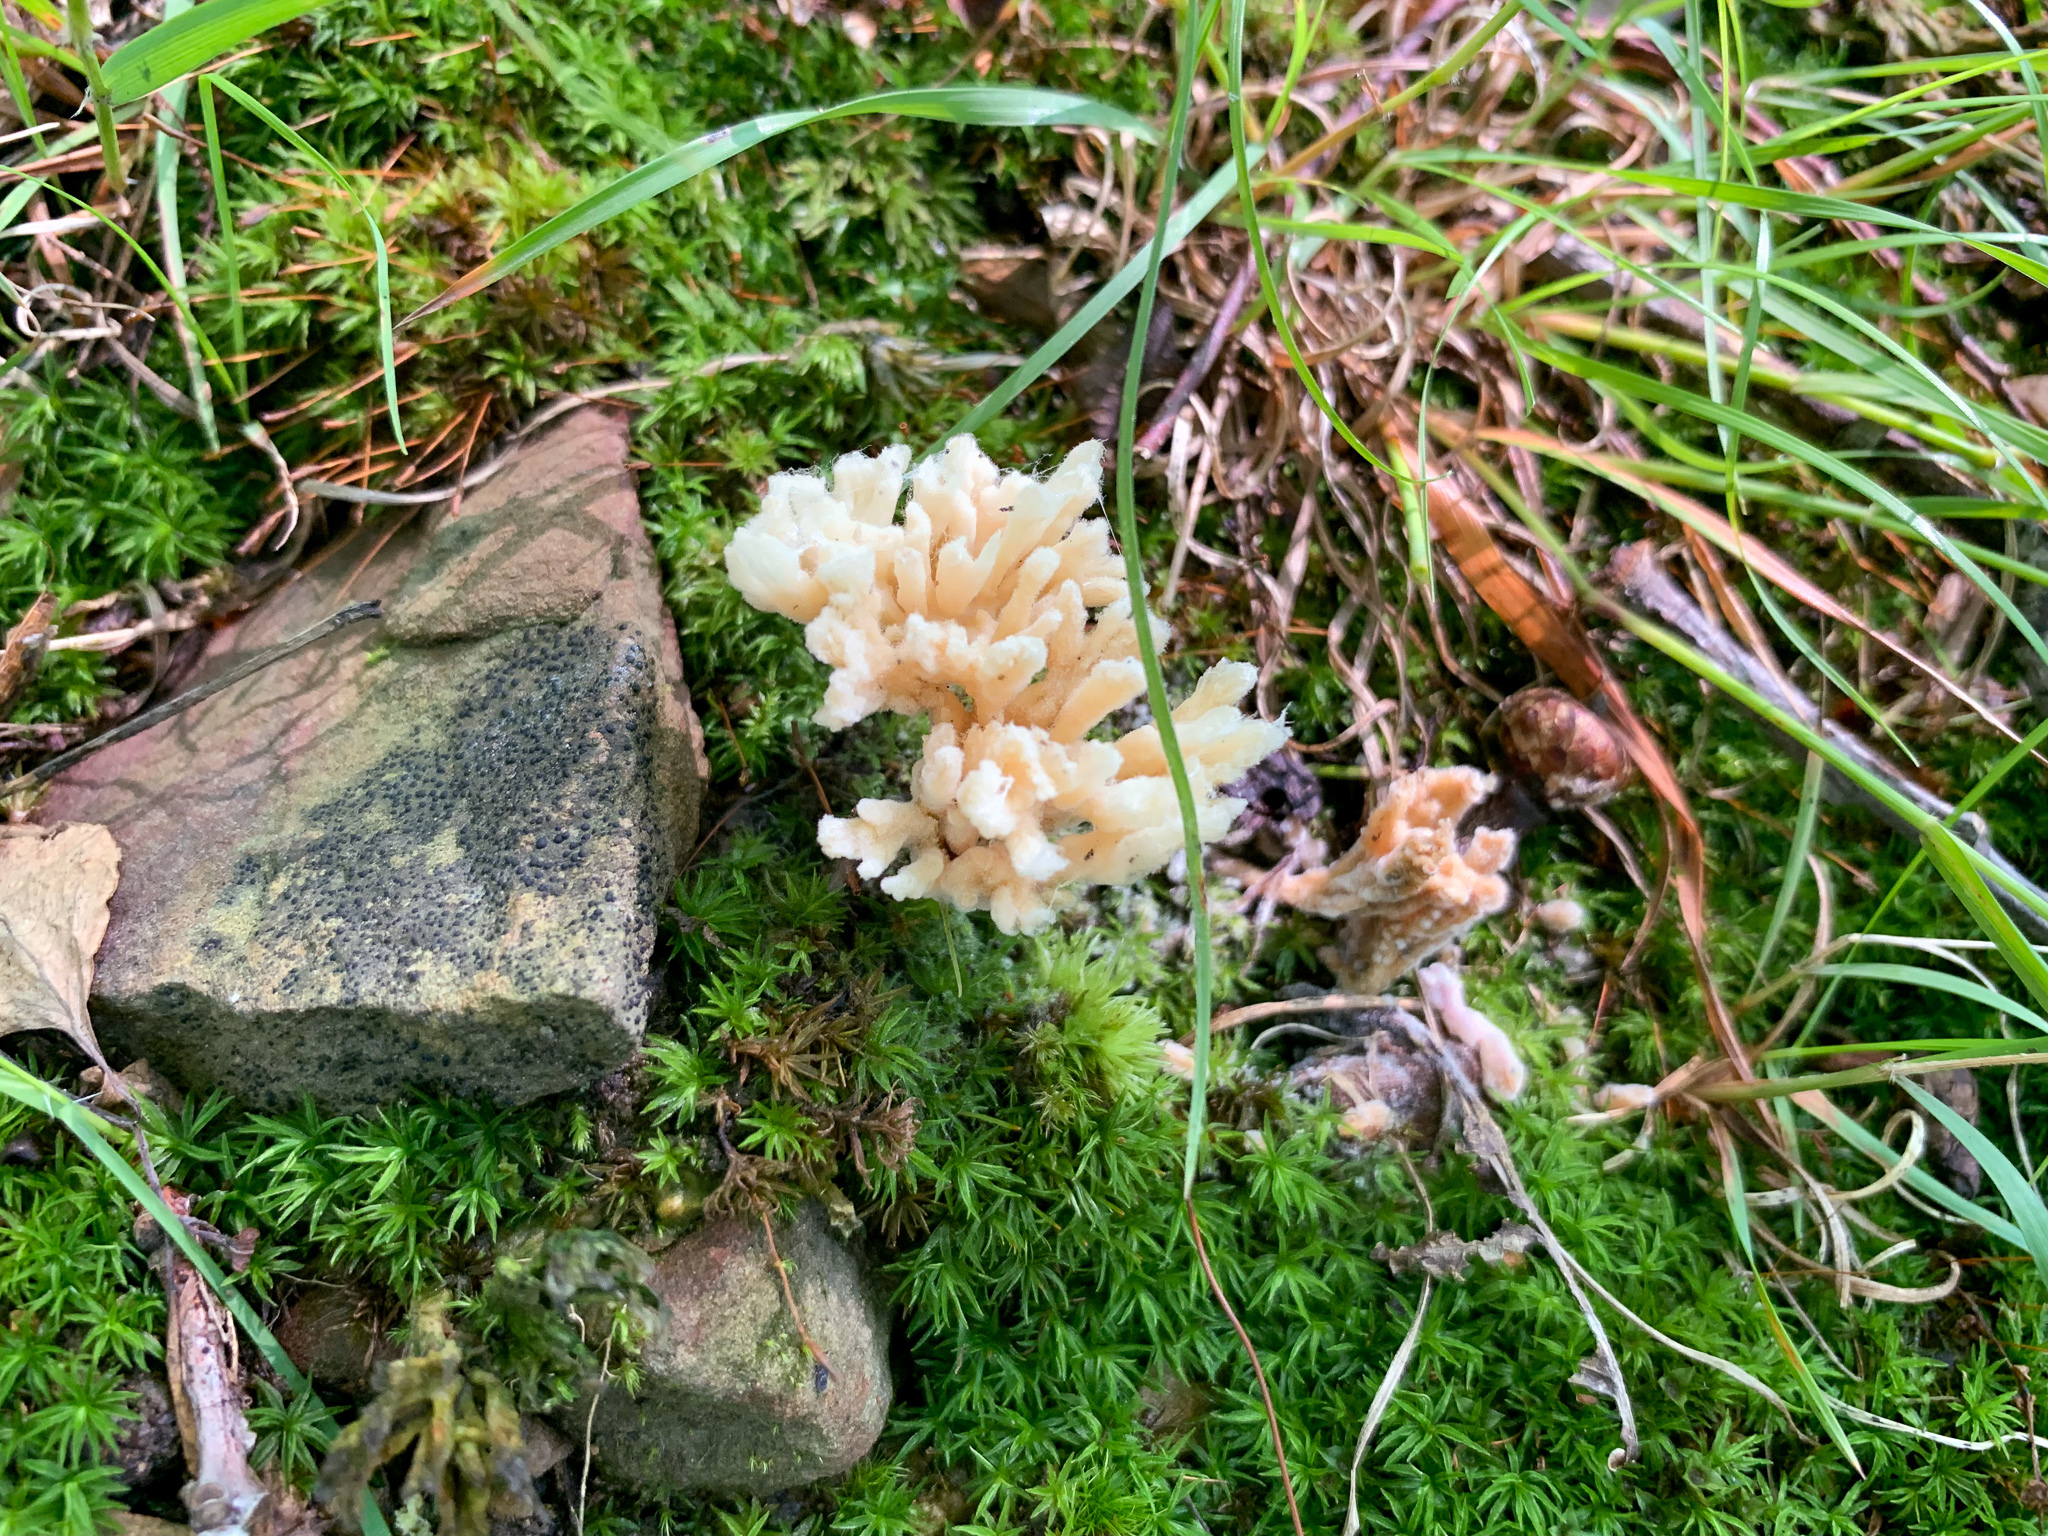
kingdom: Fungi
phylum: Basidiomycota
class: Agaricomycetes
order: Sebacinales
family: Sebacinaceae
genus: Sebacina
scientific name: Sebacina schweinitzii
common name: Jellied false coral fungus
